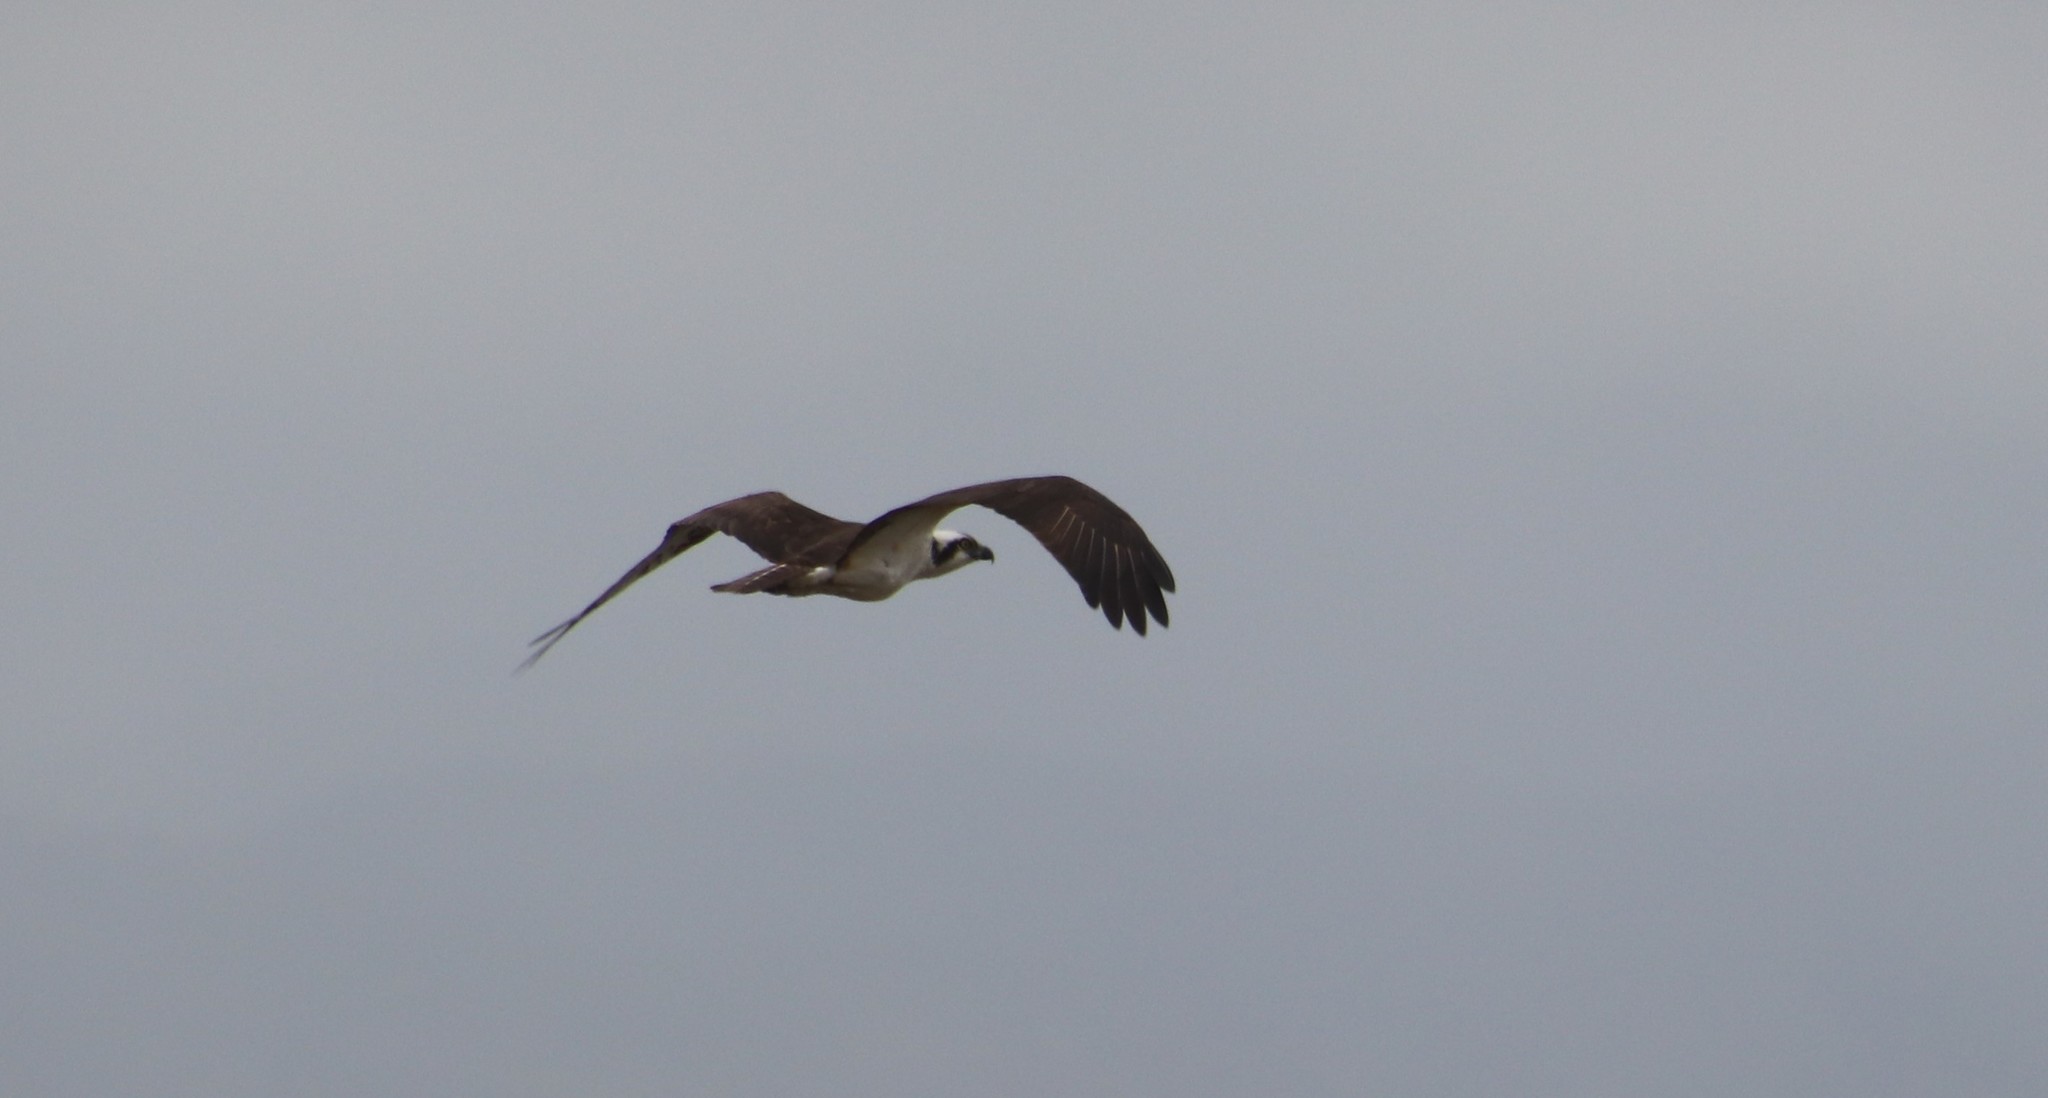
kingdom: Animalia
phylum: Chordata
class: Aves
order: Accipitriformes
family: Pandionidae
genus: Pandion
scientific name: Pandion haliaetus
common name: Osprey
